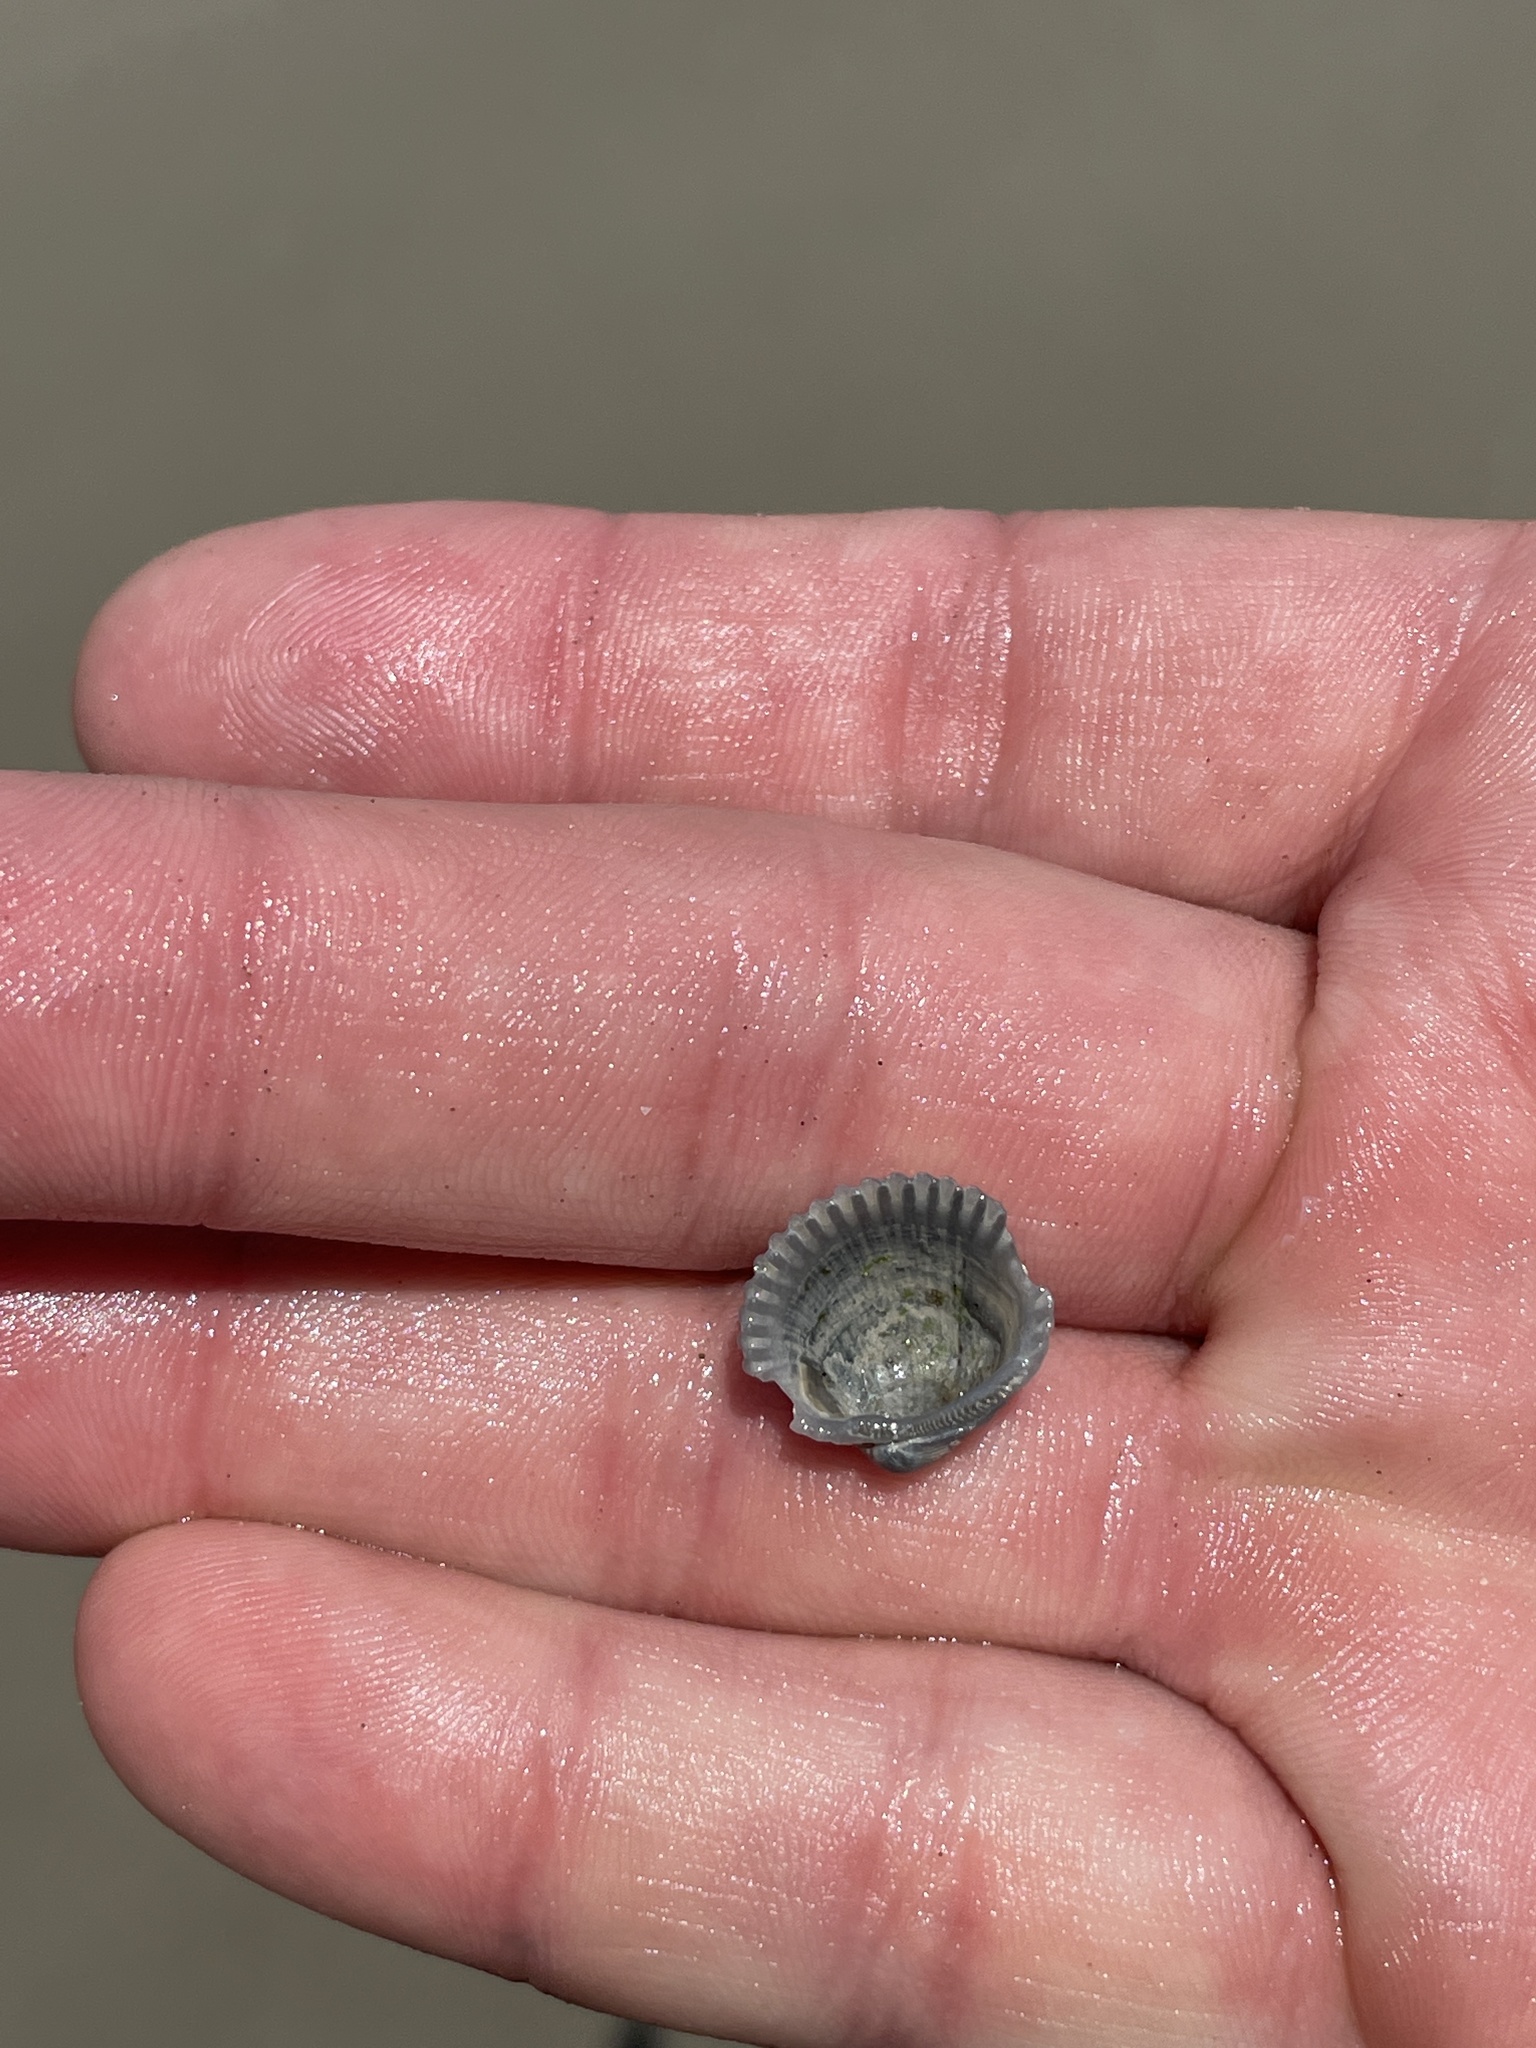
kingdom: Animalia
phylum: Mollusca
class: Bivalvia
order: Arcida
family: Arcidae
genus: Lunarca
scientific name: Lunarca ovalis
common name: Blood ark
